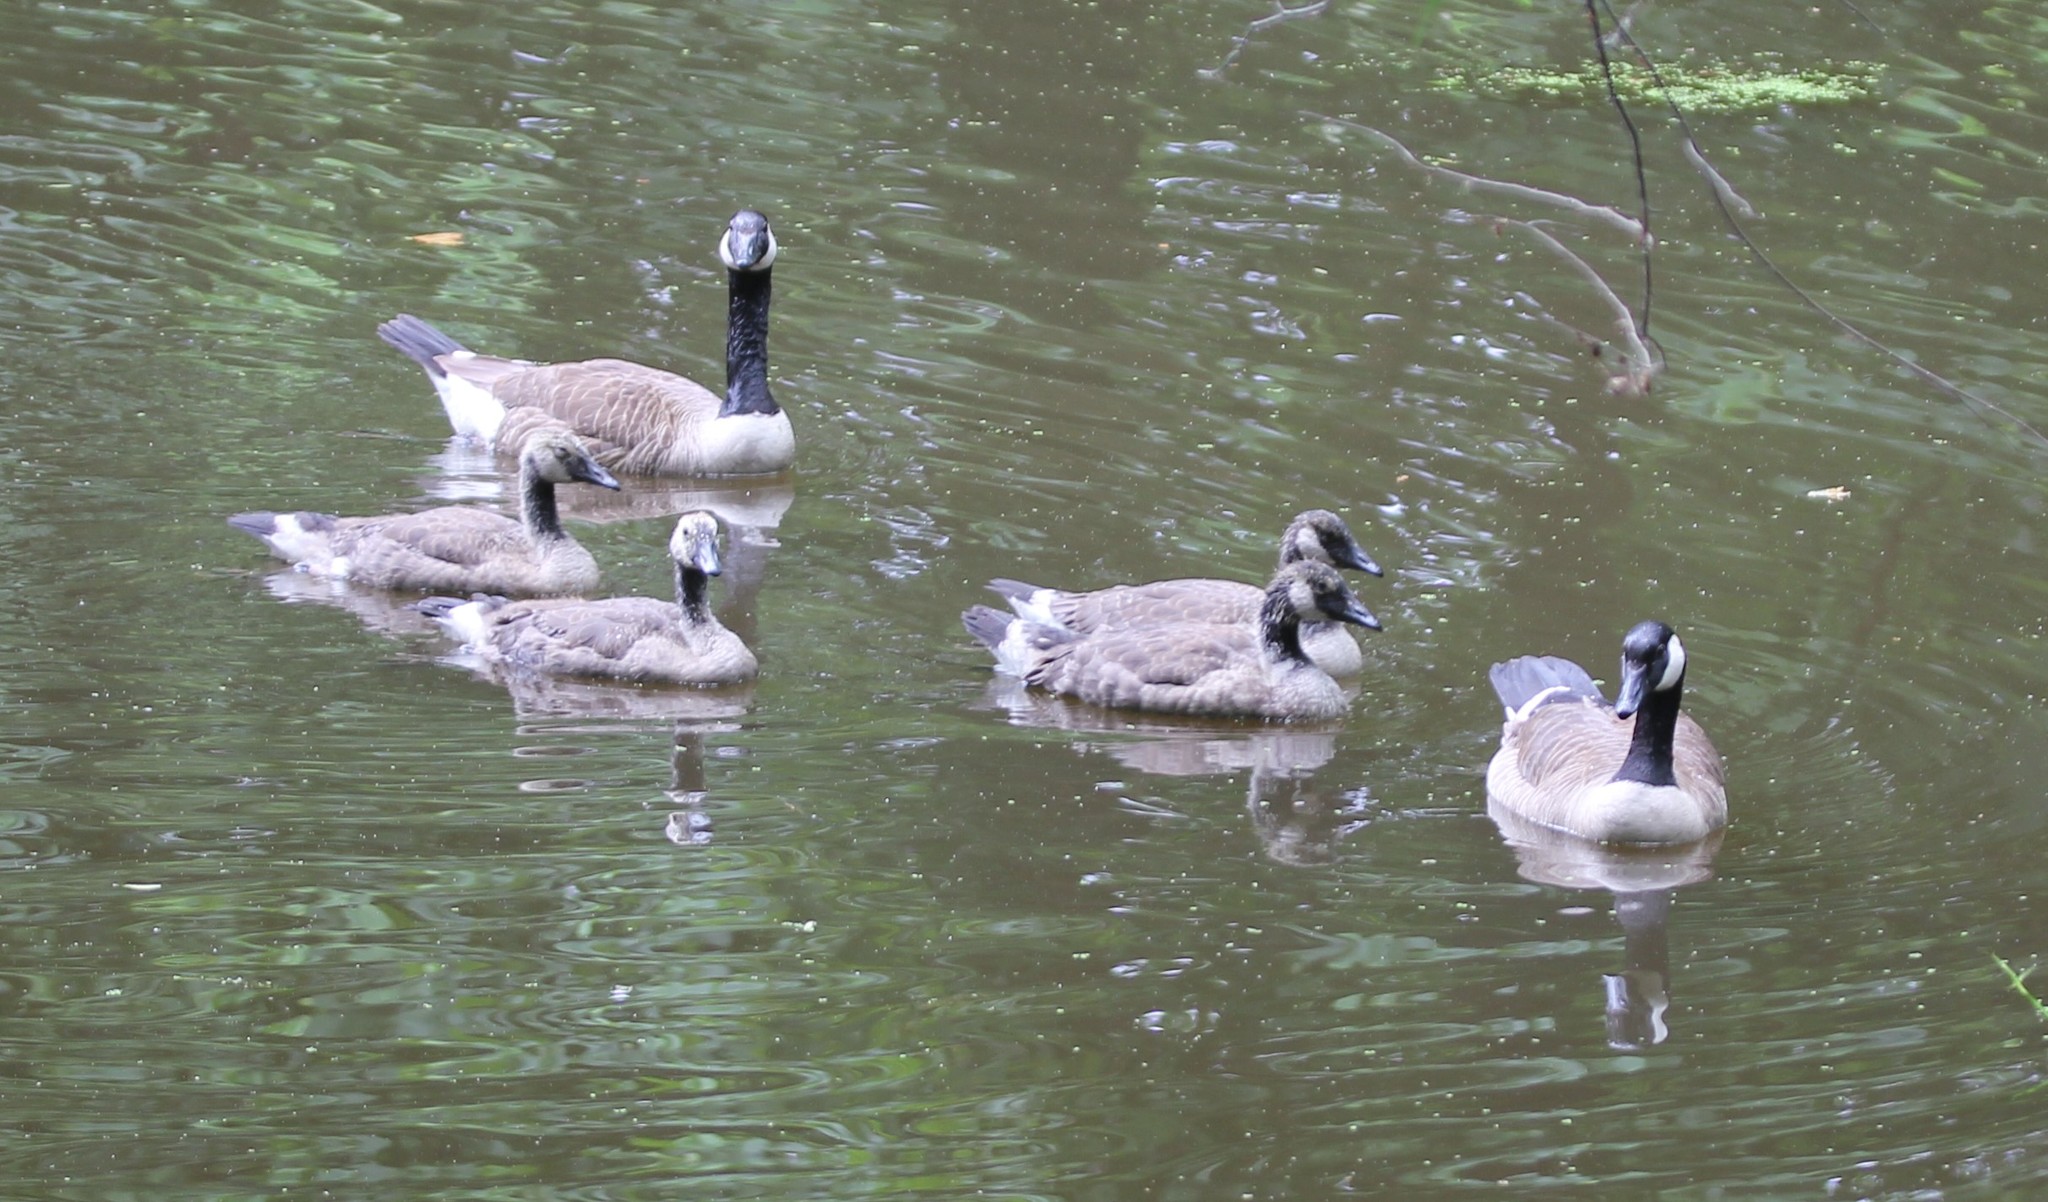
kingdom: Animalia
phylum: Chordata
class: Aves
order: Anseriformes
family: Anatidae
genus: Branta
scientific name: Branta canadensis
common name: Canada goose
